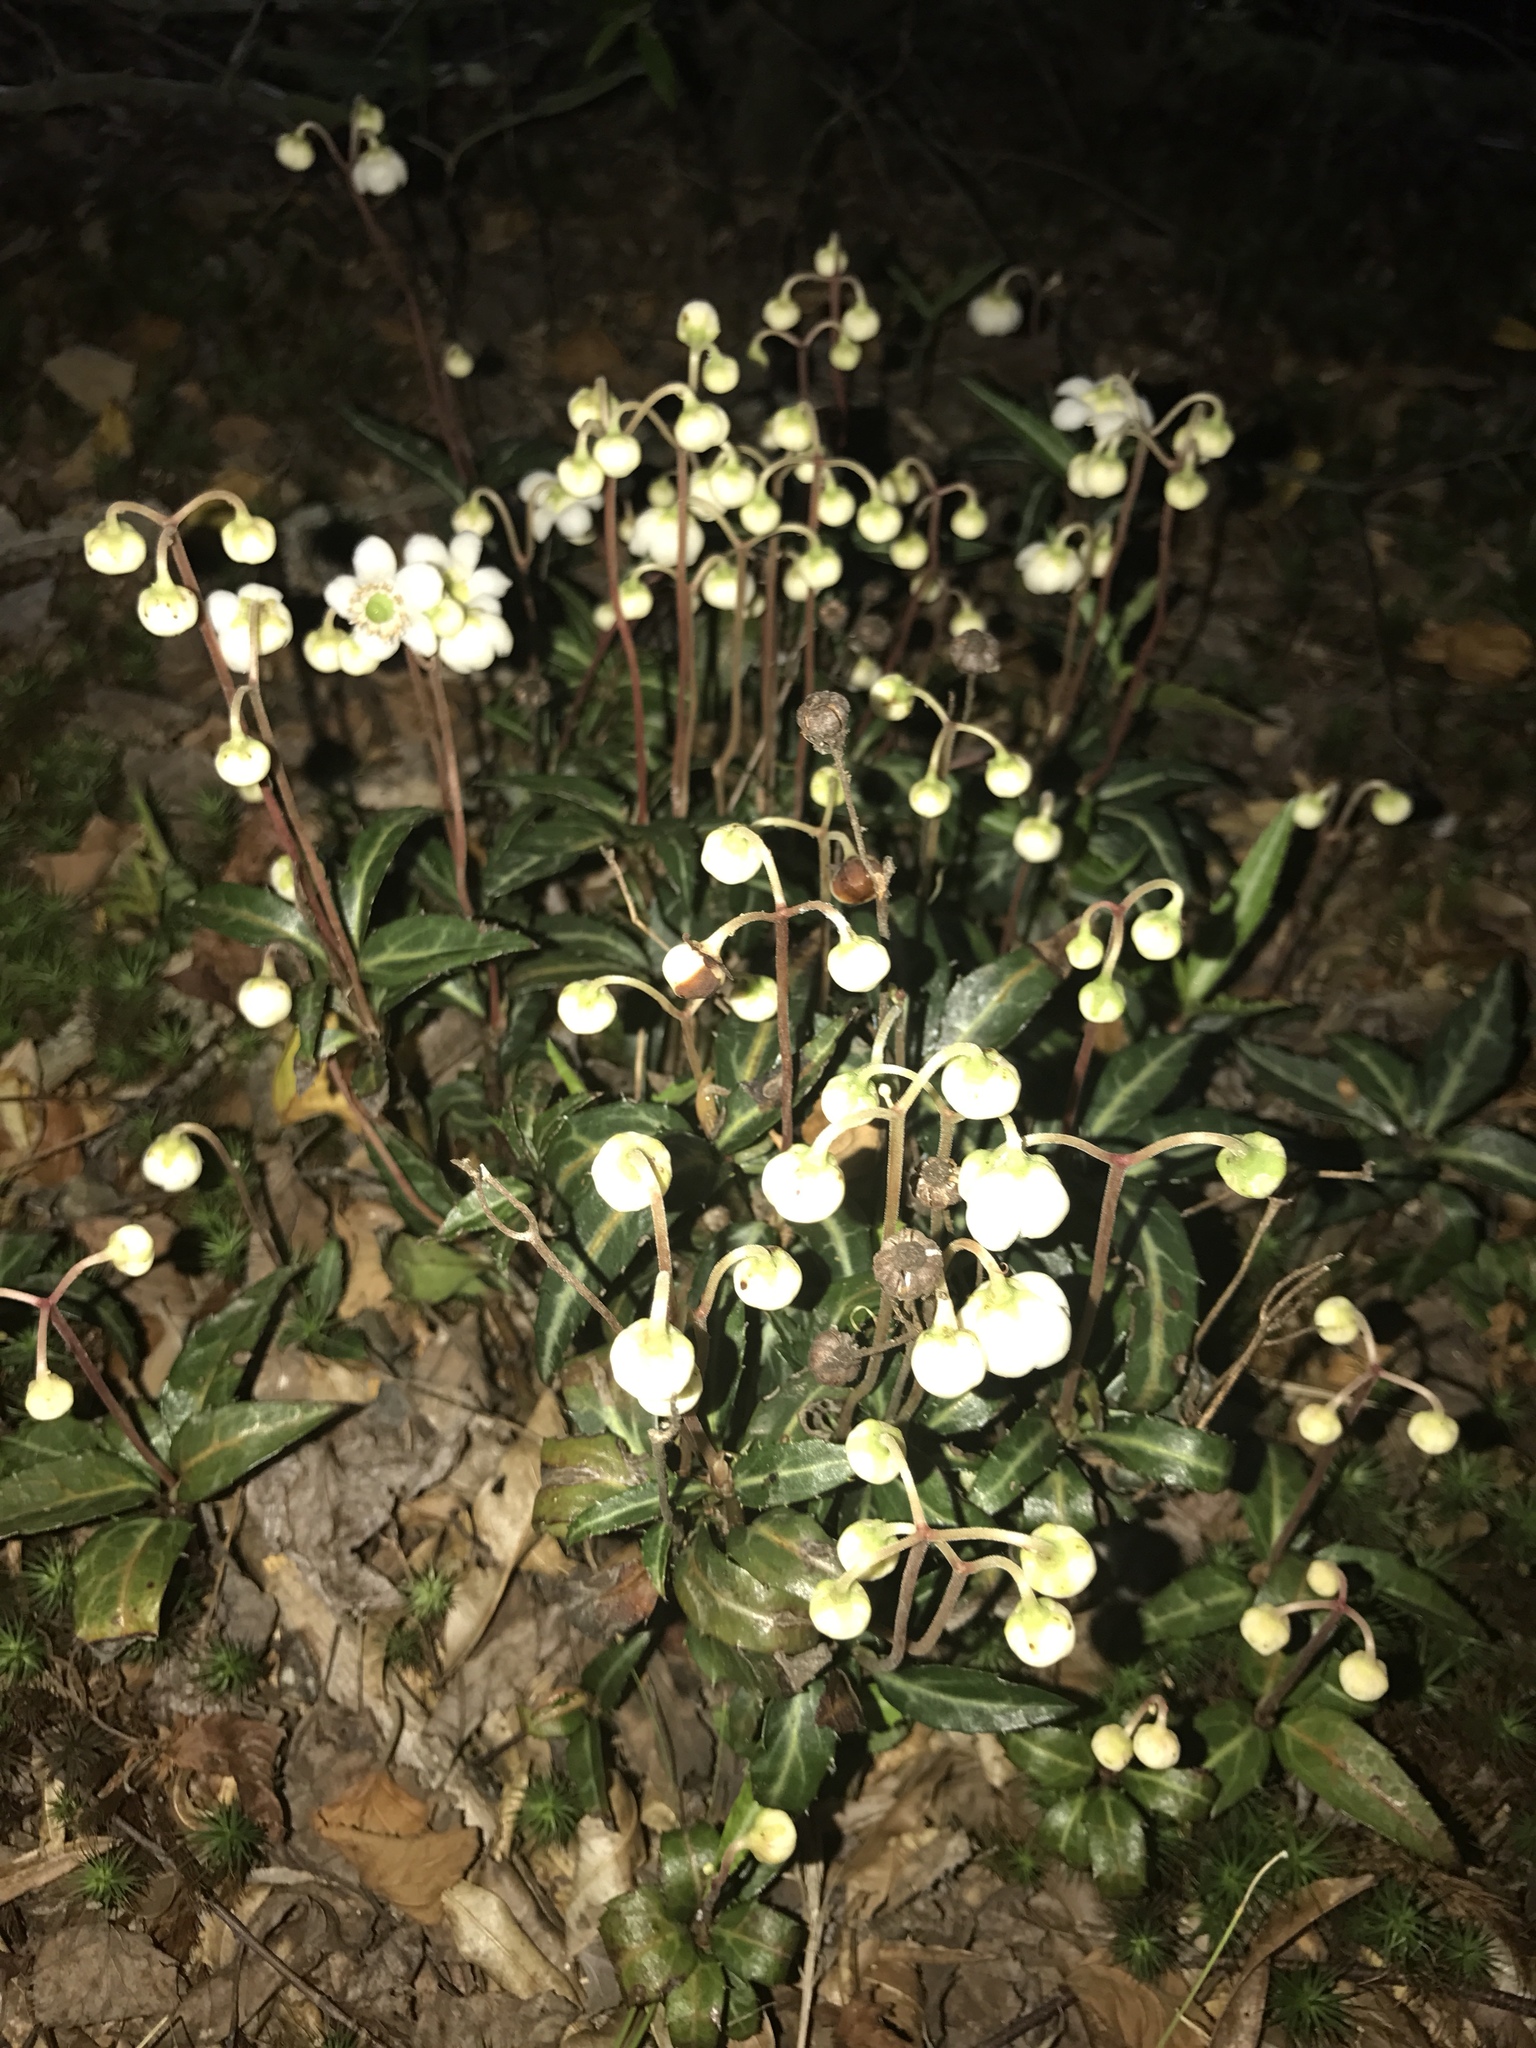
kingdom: Plantae
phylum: Tracheophyta
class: Magnoliopsida
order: Ericales
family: Ericaceae
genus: Chimaphila
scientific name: Chimaphila maculata
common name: Spotted pipsissewa
